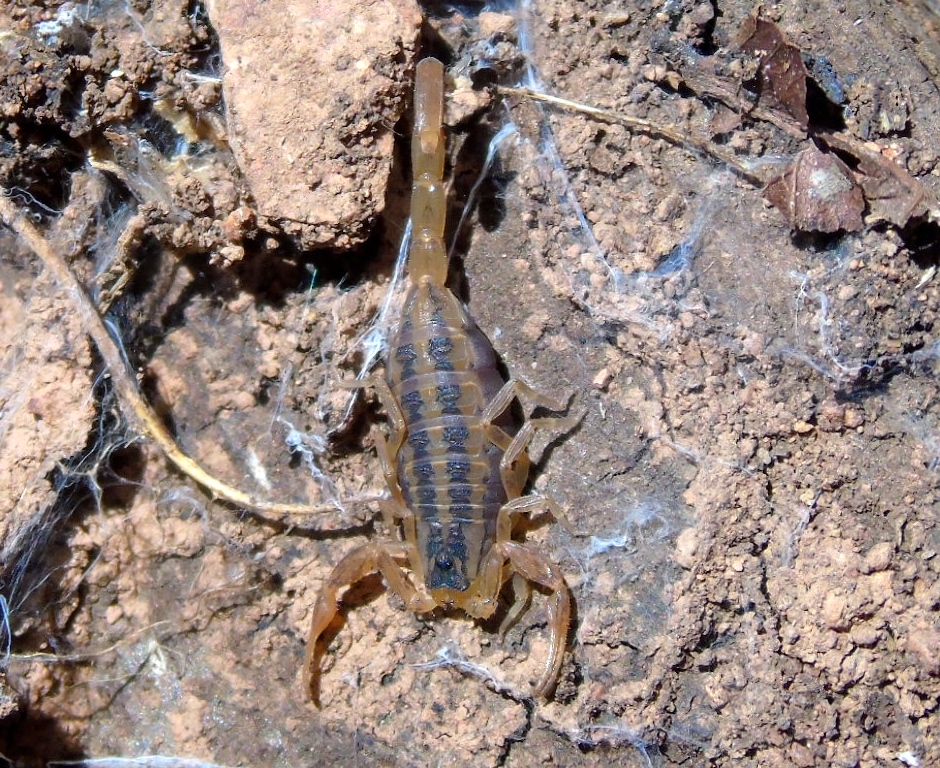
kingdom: Animalia
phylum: Arthropoda
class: Arachnida
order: Scorpiones
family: Buthidae
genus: Centruroides
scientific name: Centruroides baldazoi
